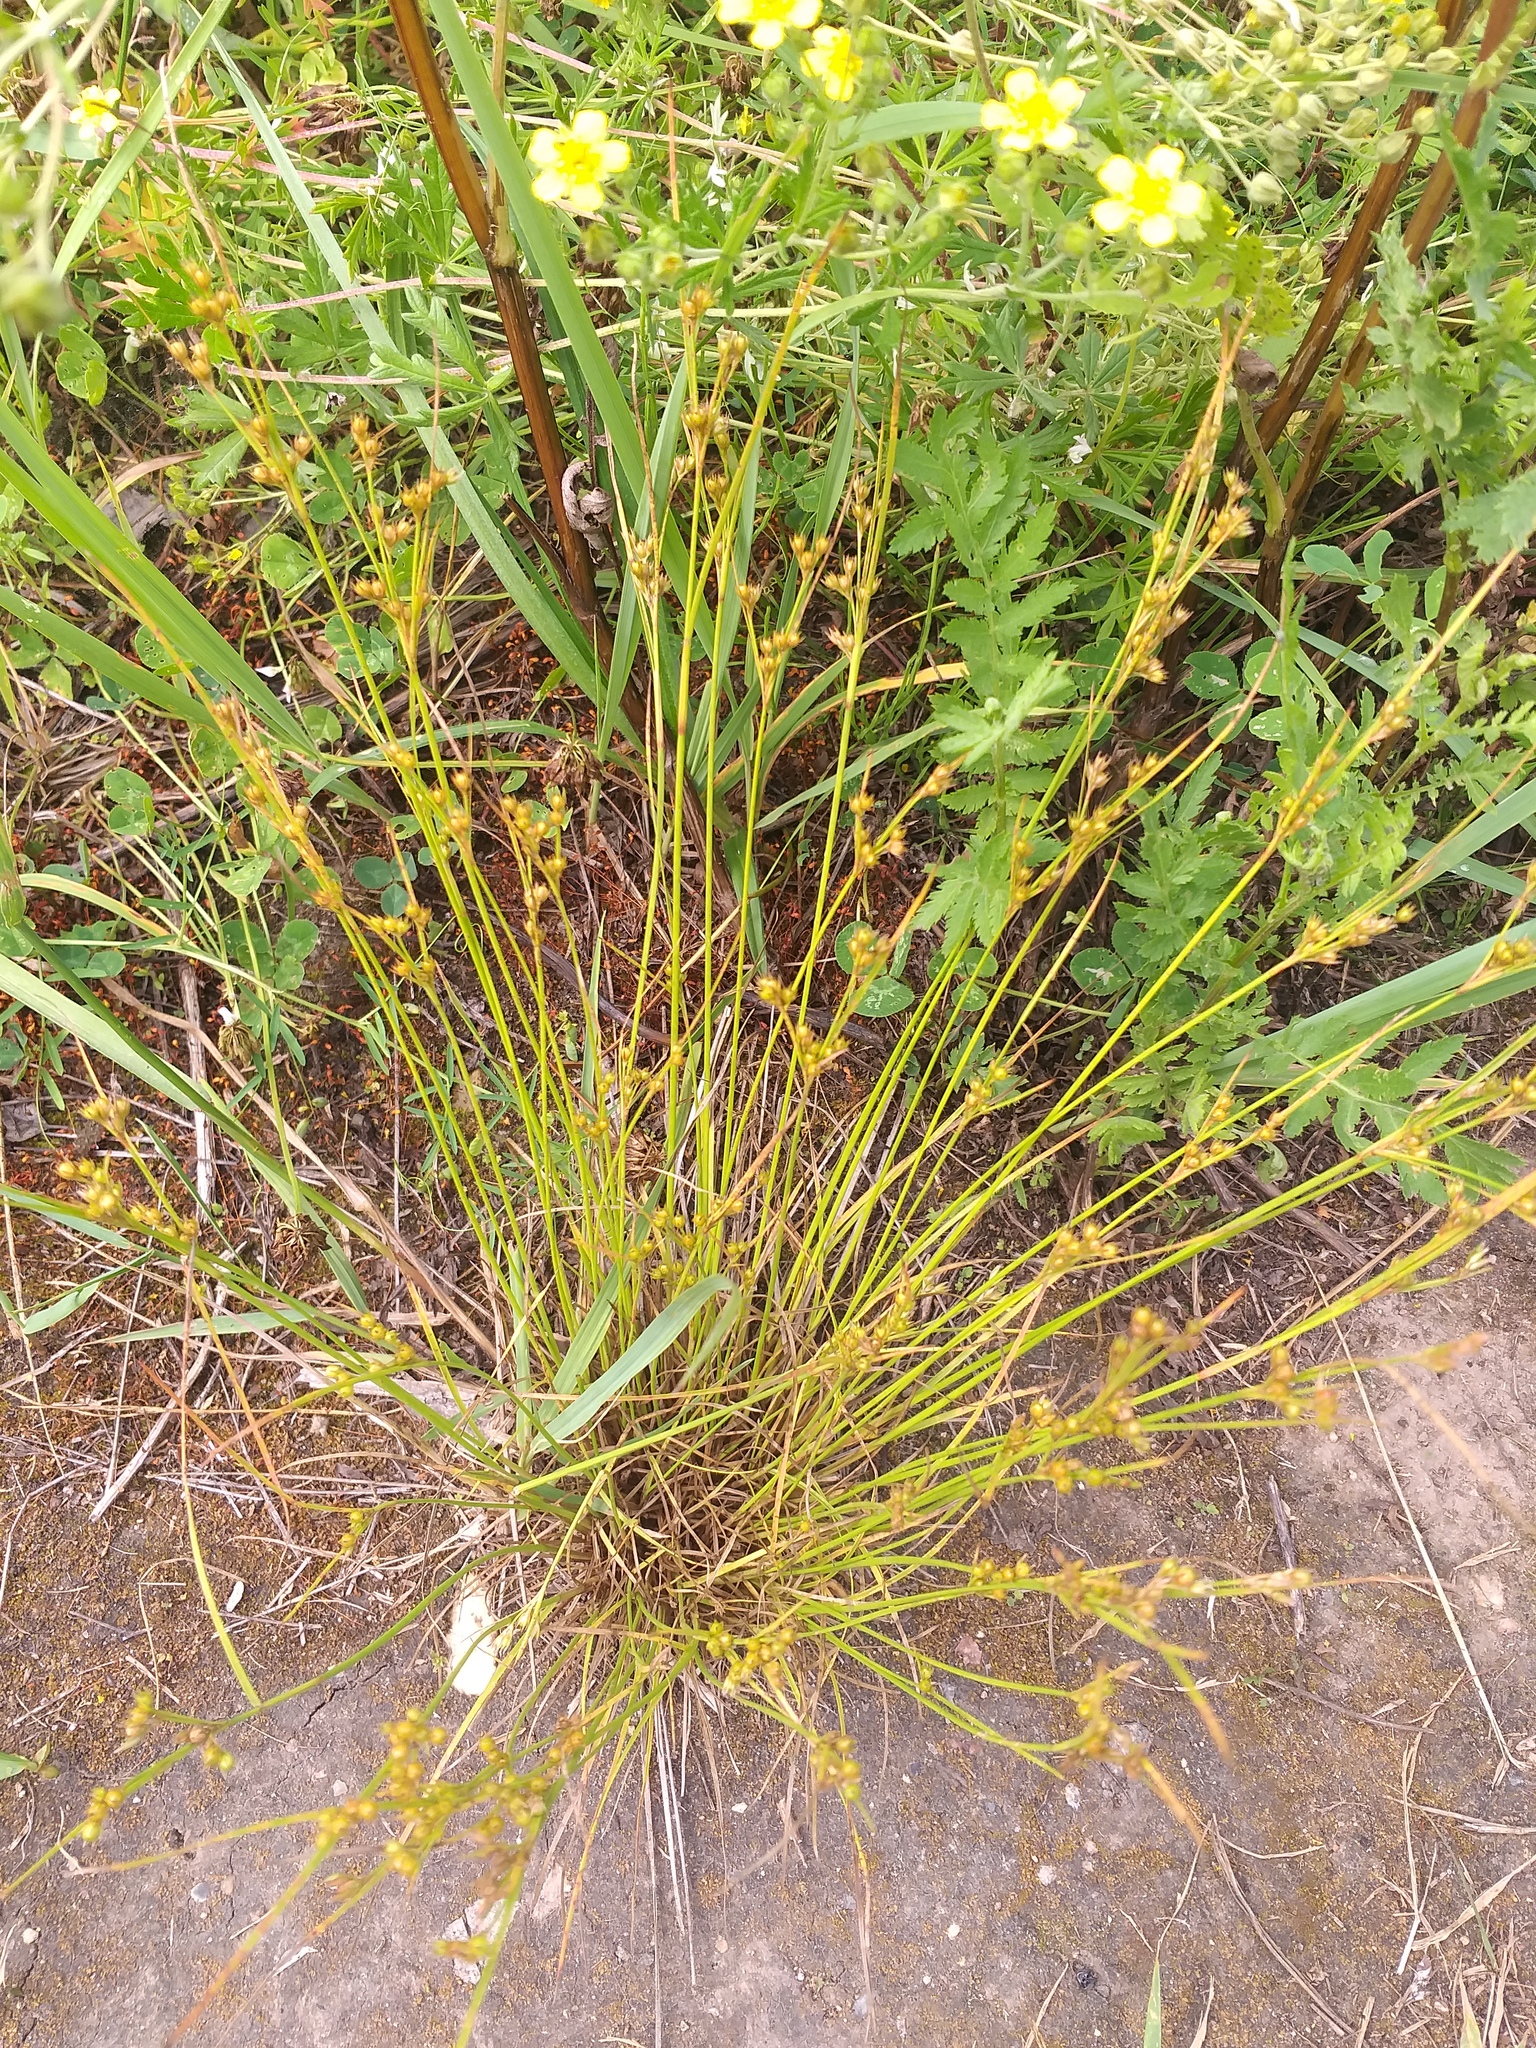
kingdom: Plantae
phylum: Tracheophyta
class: Liliopsida
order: Poales
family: Juncaceae
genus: Juncus
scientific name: Juncus tenuis
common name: Slender rush
